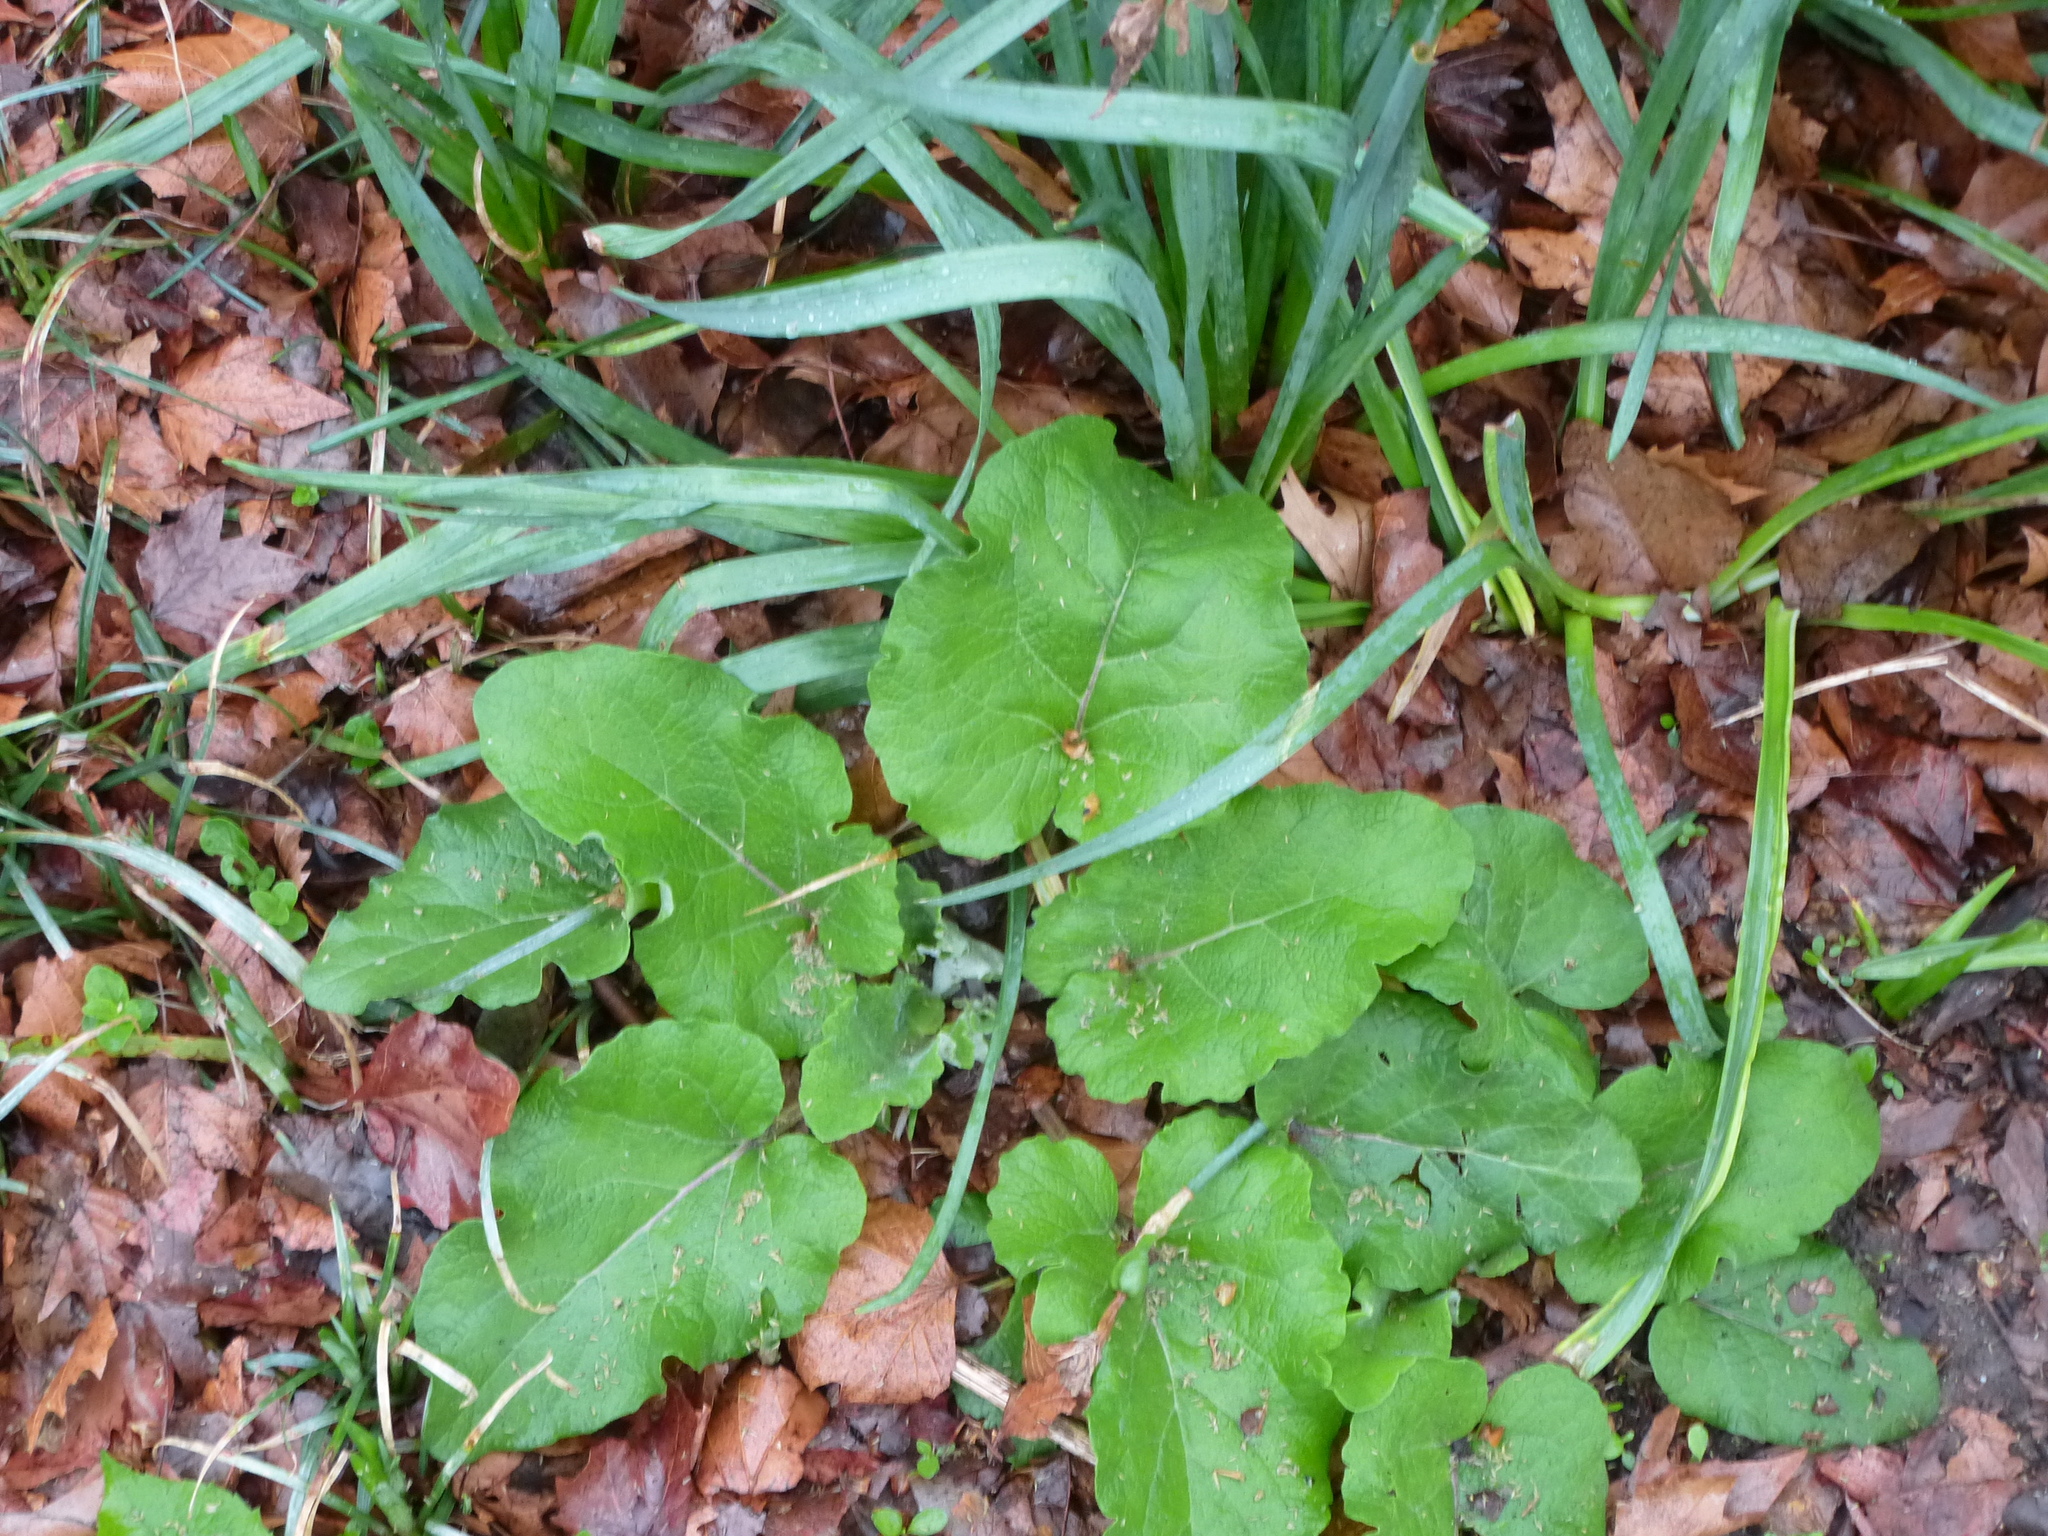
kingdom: Plantae
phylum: Tracheophyta
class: Magnoliopsida
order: Asterales
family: Asteraceae
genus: Arctium
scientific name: Arctium
